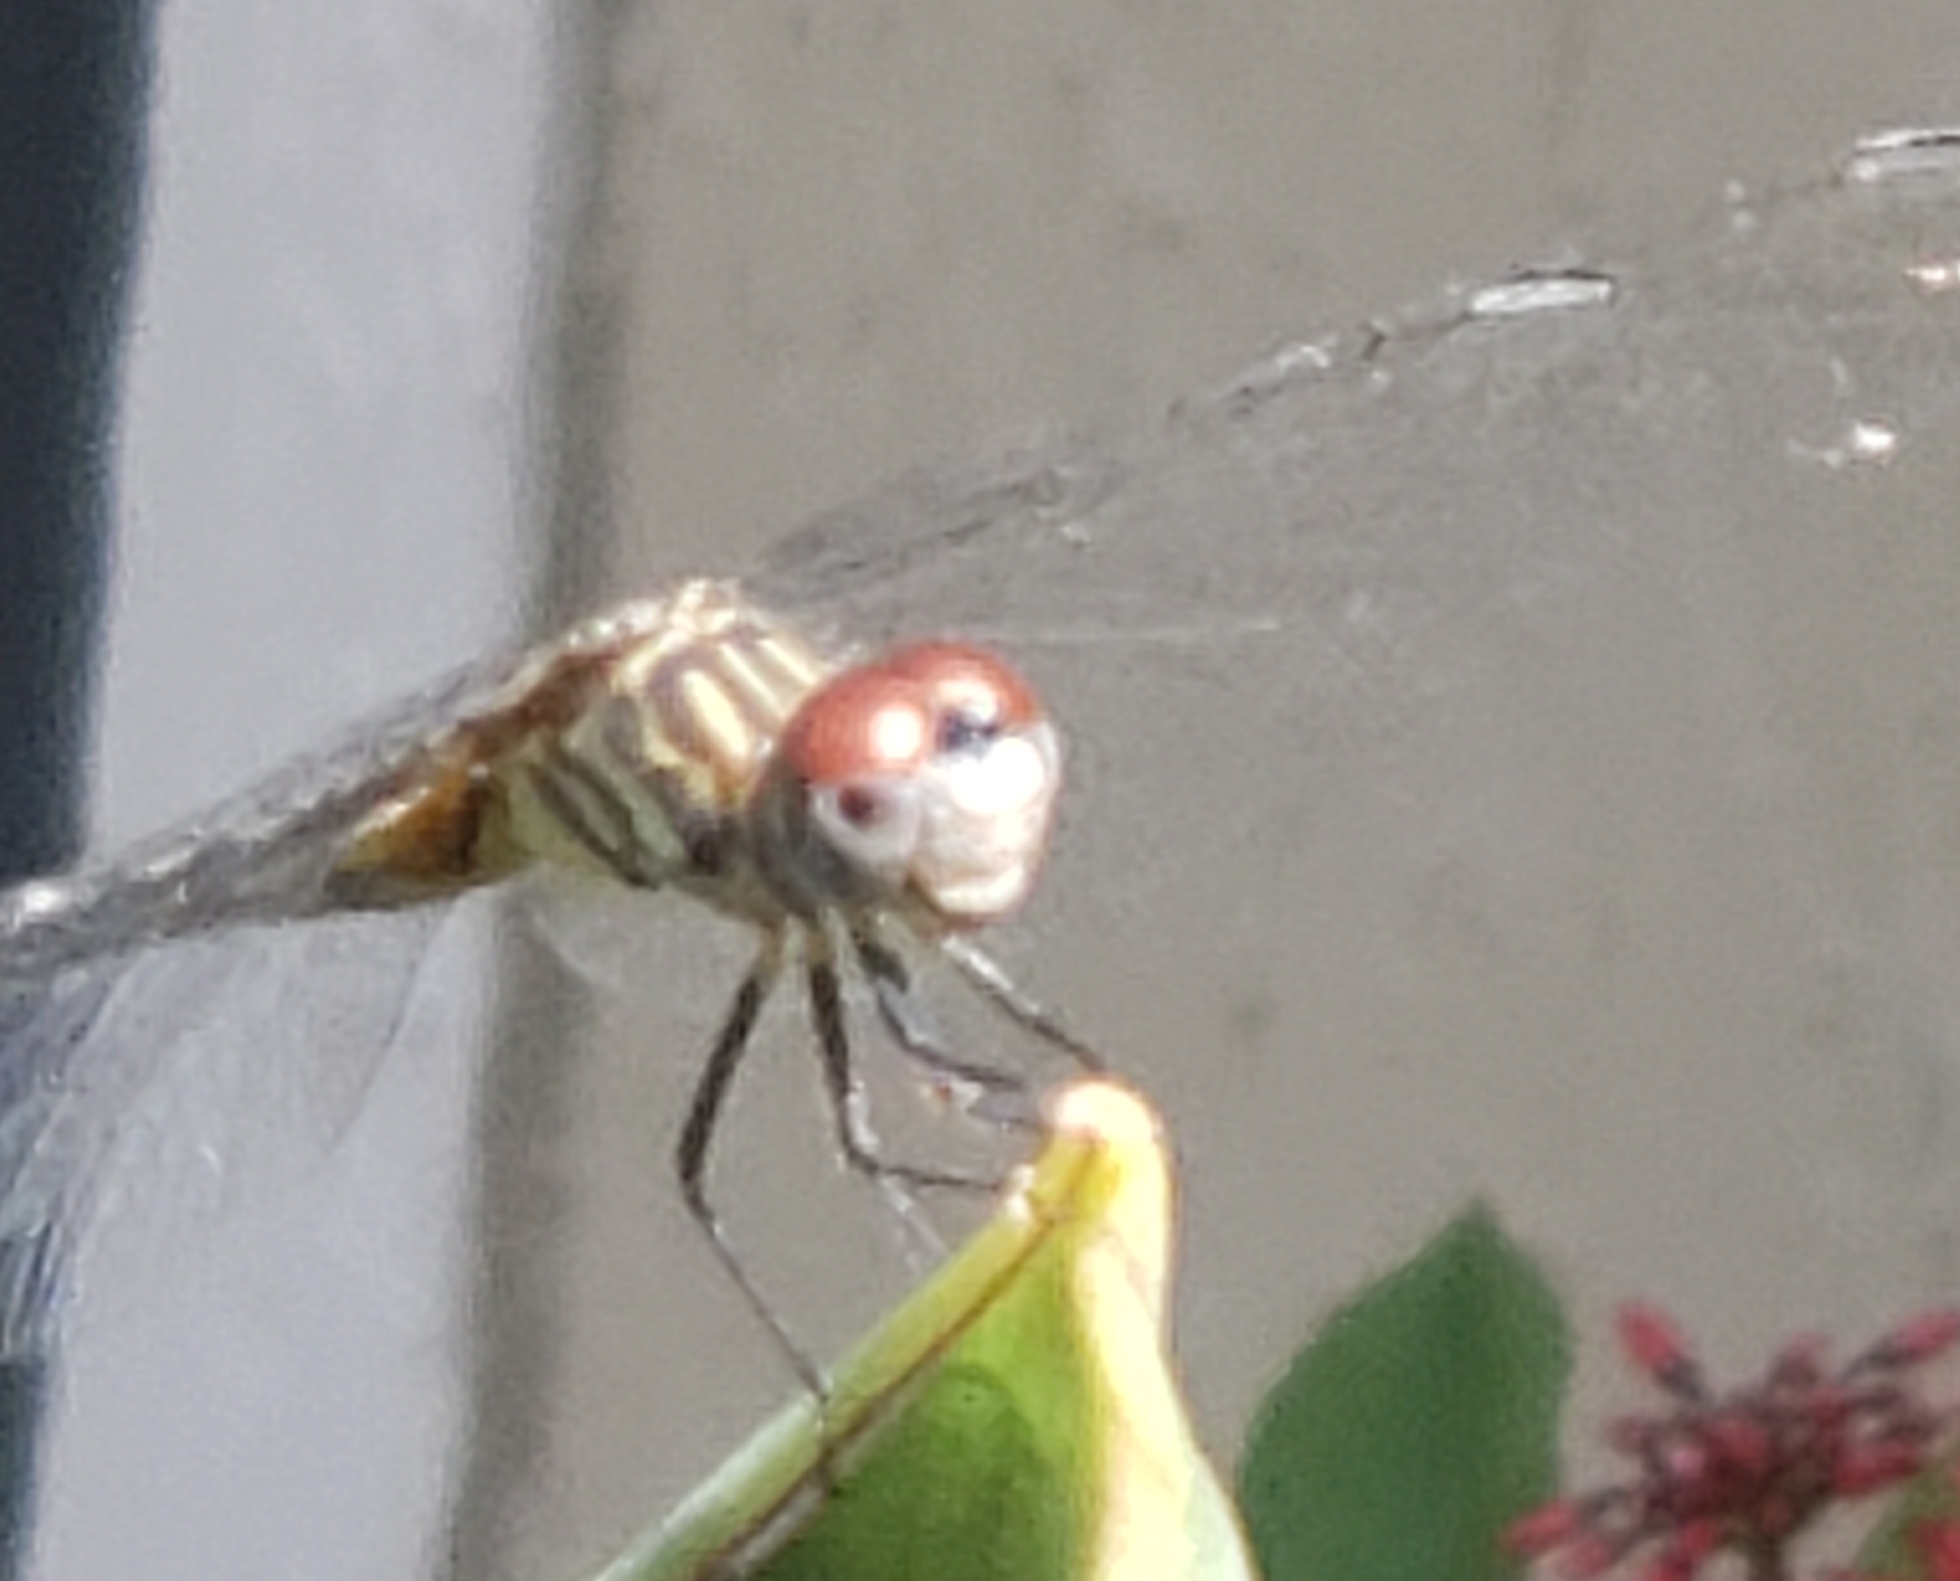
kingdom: Animalia
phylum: Arthropoda
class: Insecta
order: Odonata
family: Libellulidae
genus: Pachydiplax
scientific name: Pachydiplax longipennis
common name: Blue dasher
